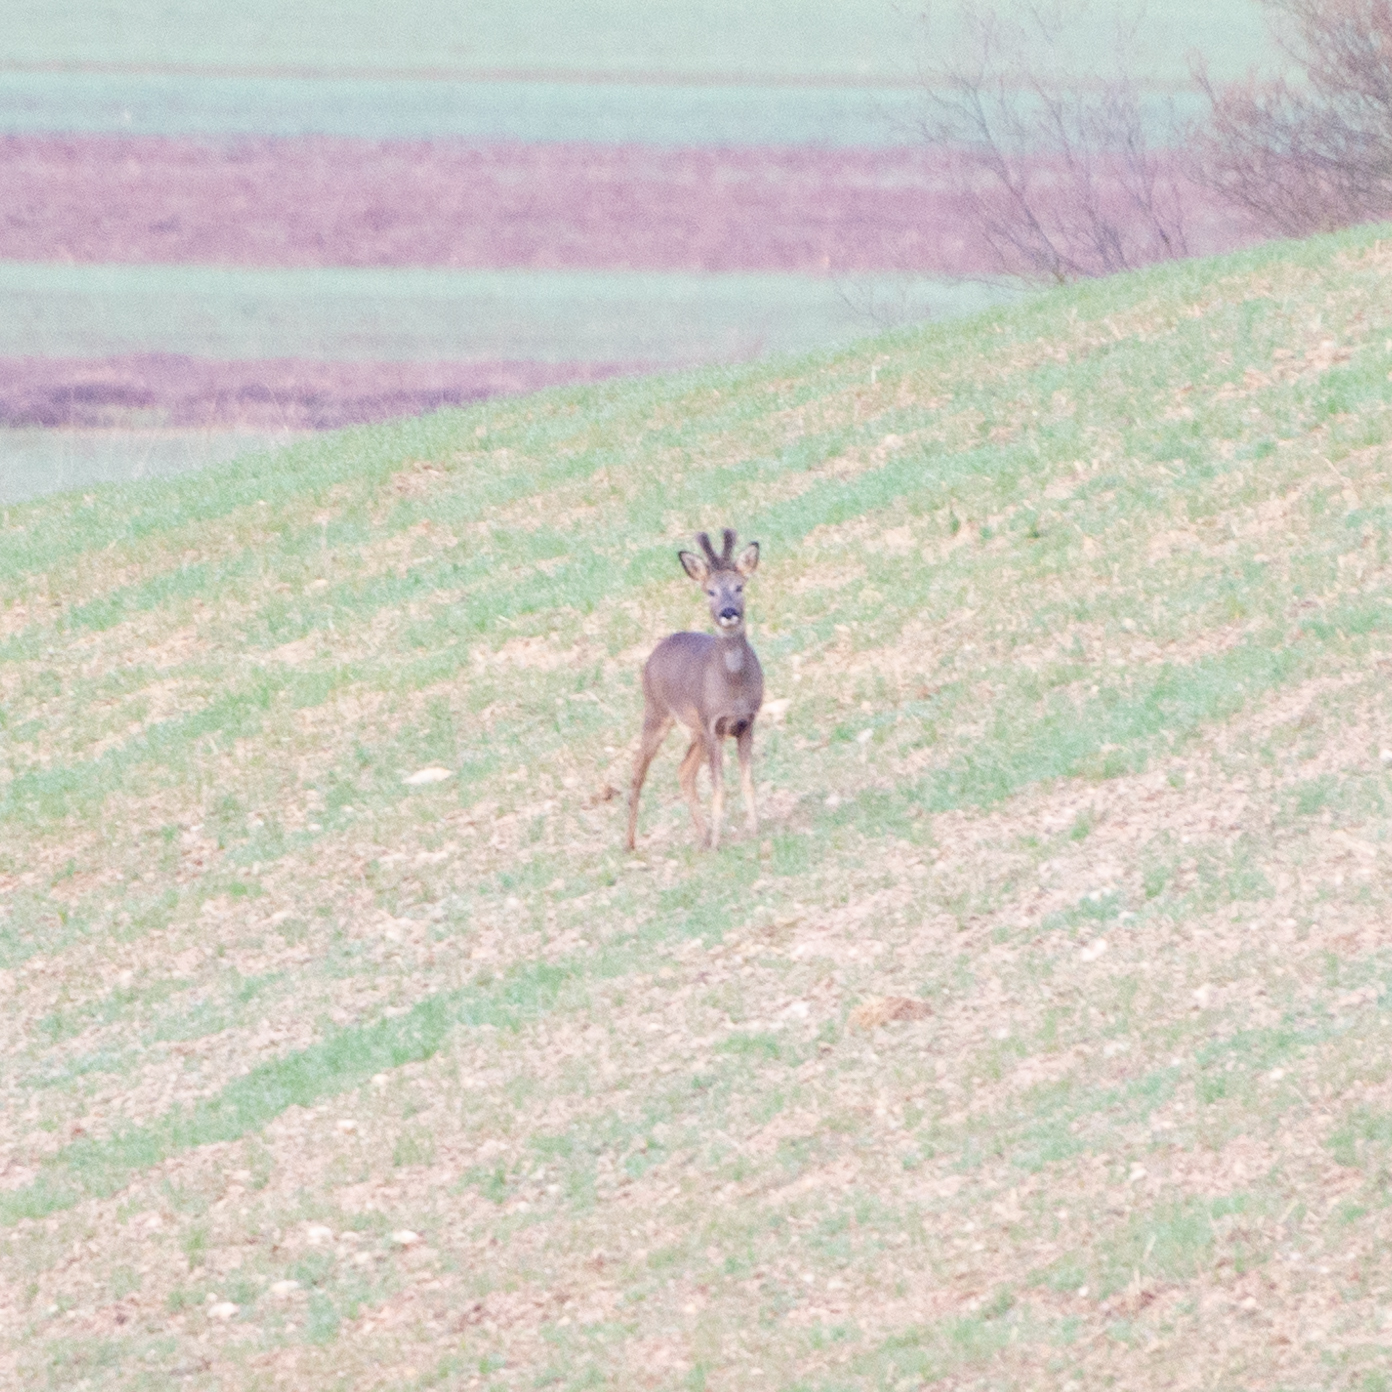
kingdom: Animalia
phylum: Chordata
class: Mammalia
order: Artiodactyla
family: Cervidae
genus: Capreolus
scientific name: Capreolus capreolus
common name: Western roe deer
